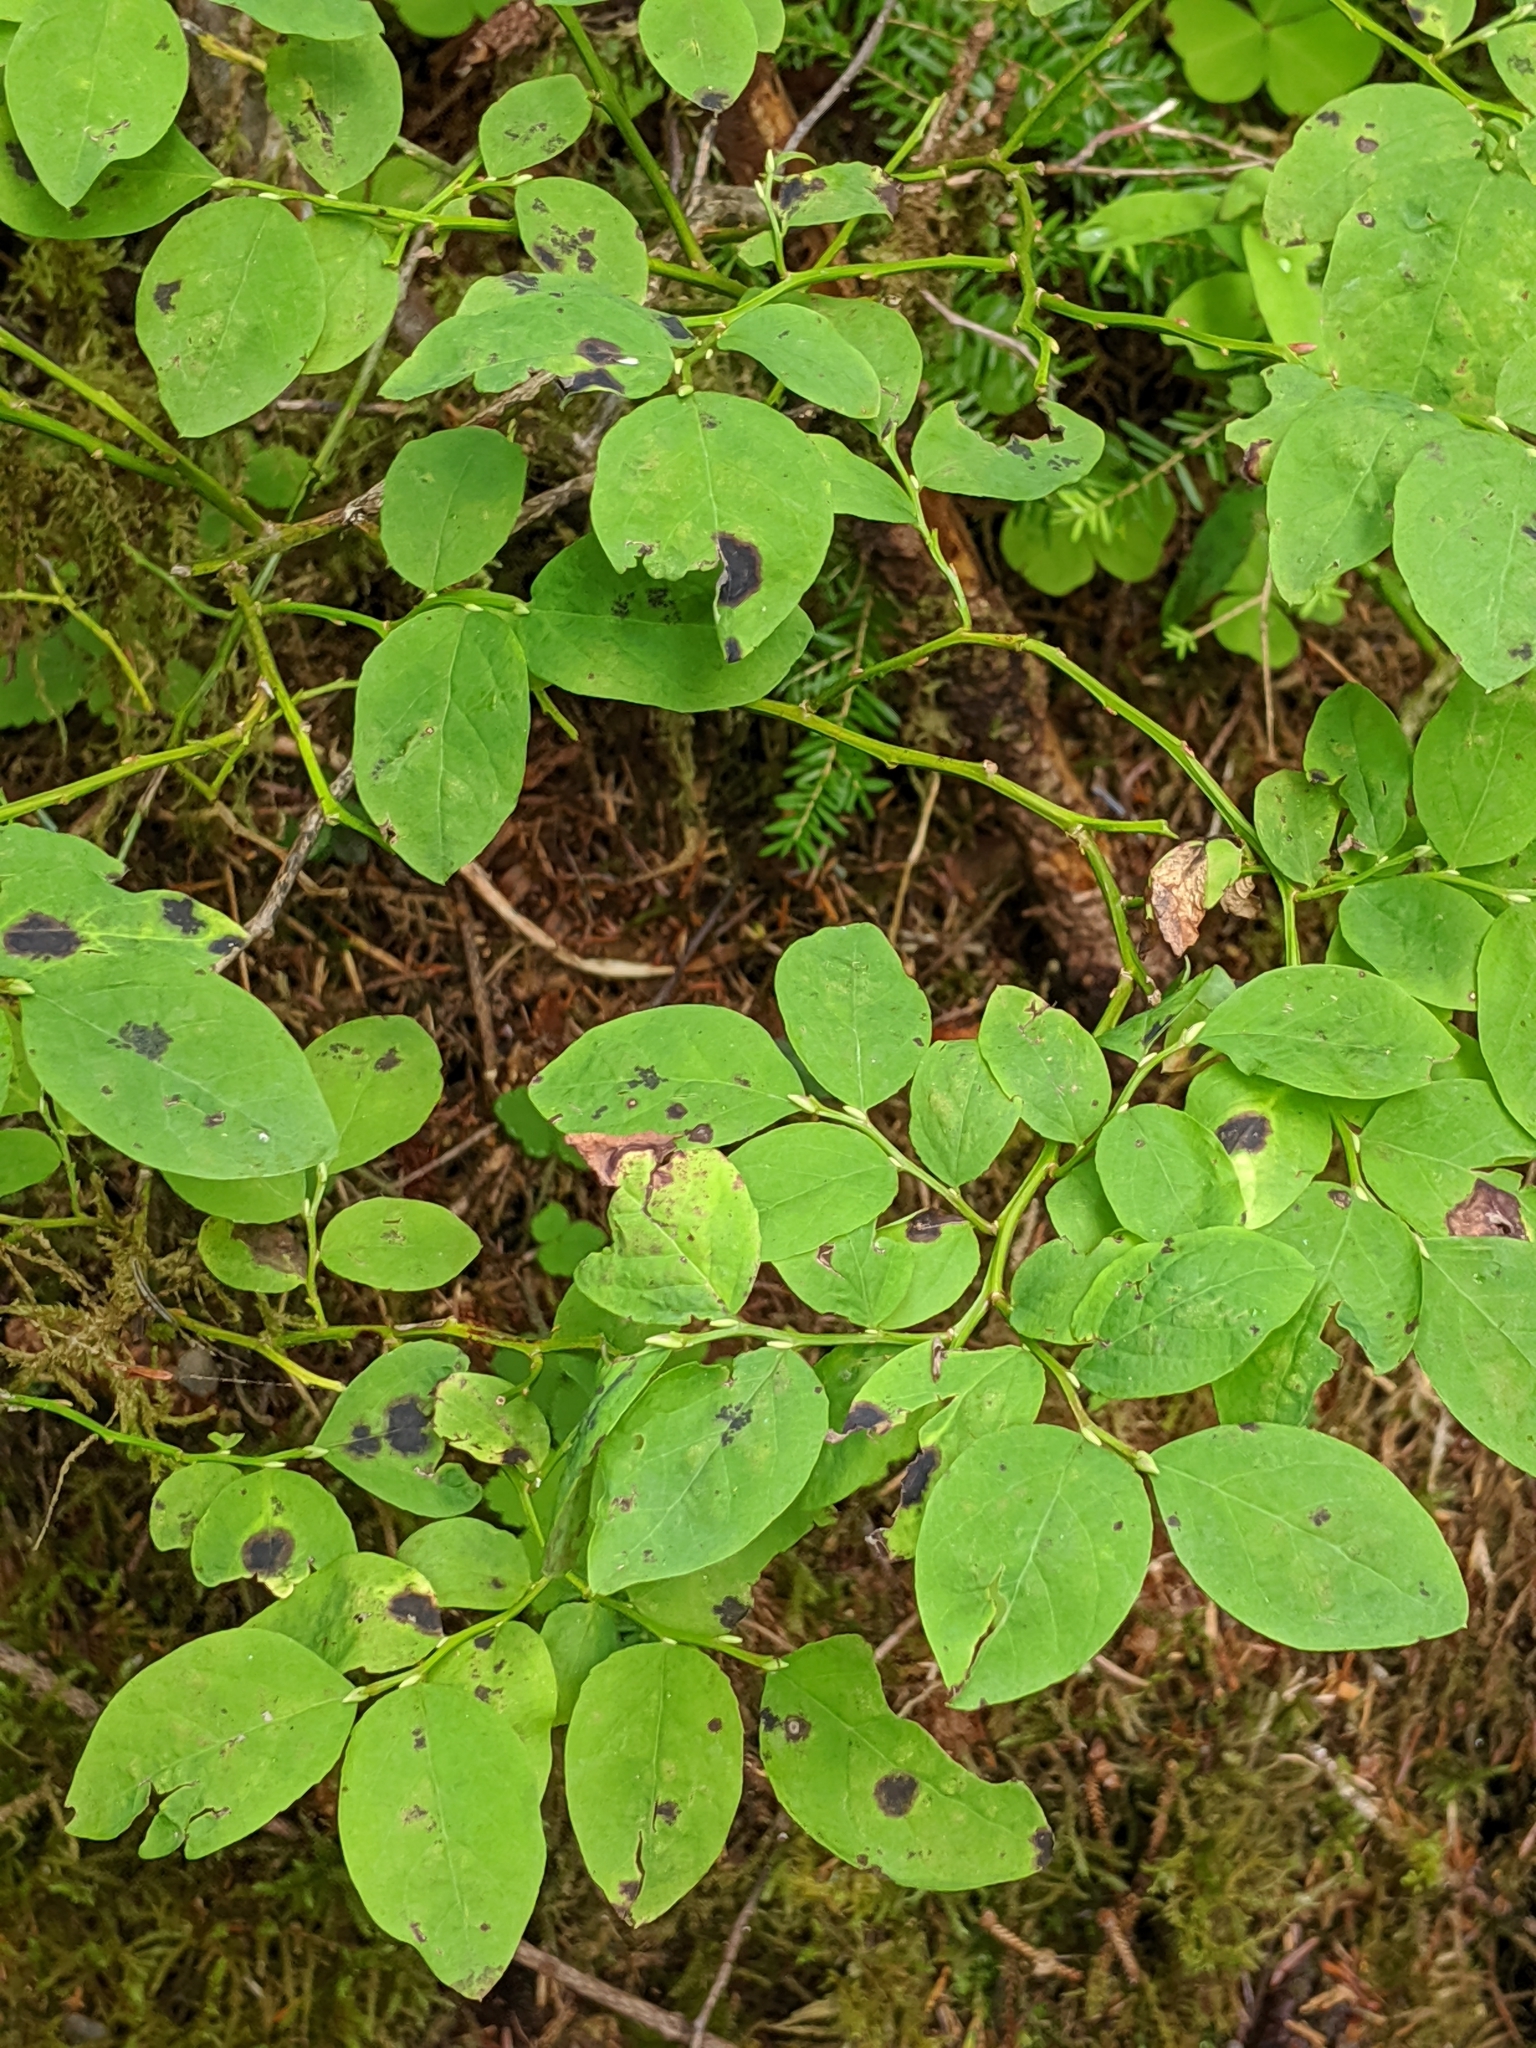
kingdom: Plantae
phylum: Tracheophyta
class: Magnoliopsida
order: Ericales
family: Ericaceae
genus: Vaccinium
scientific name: Vaccinium parvifolium
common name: Red-huckleberry
